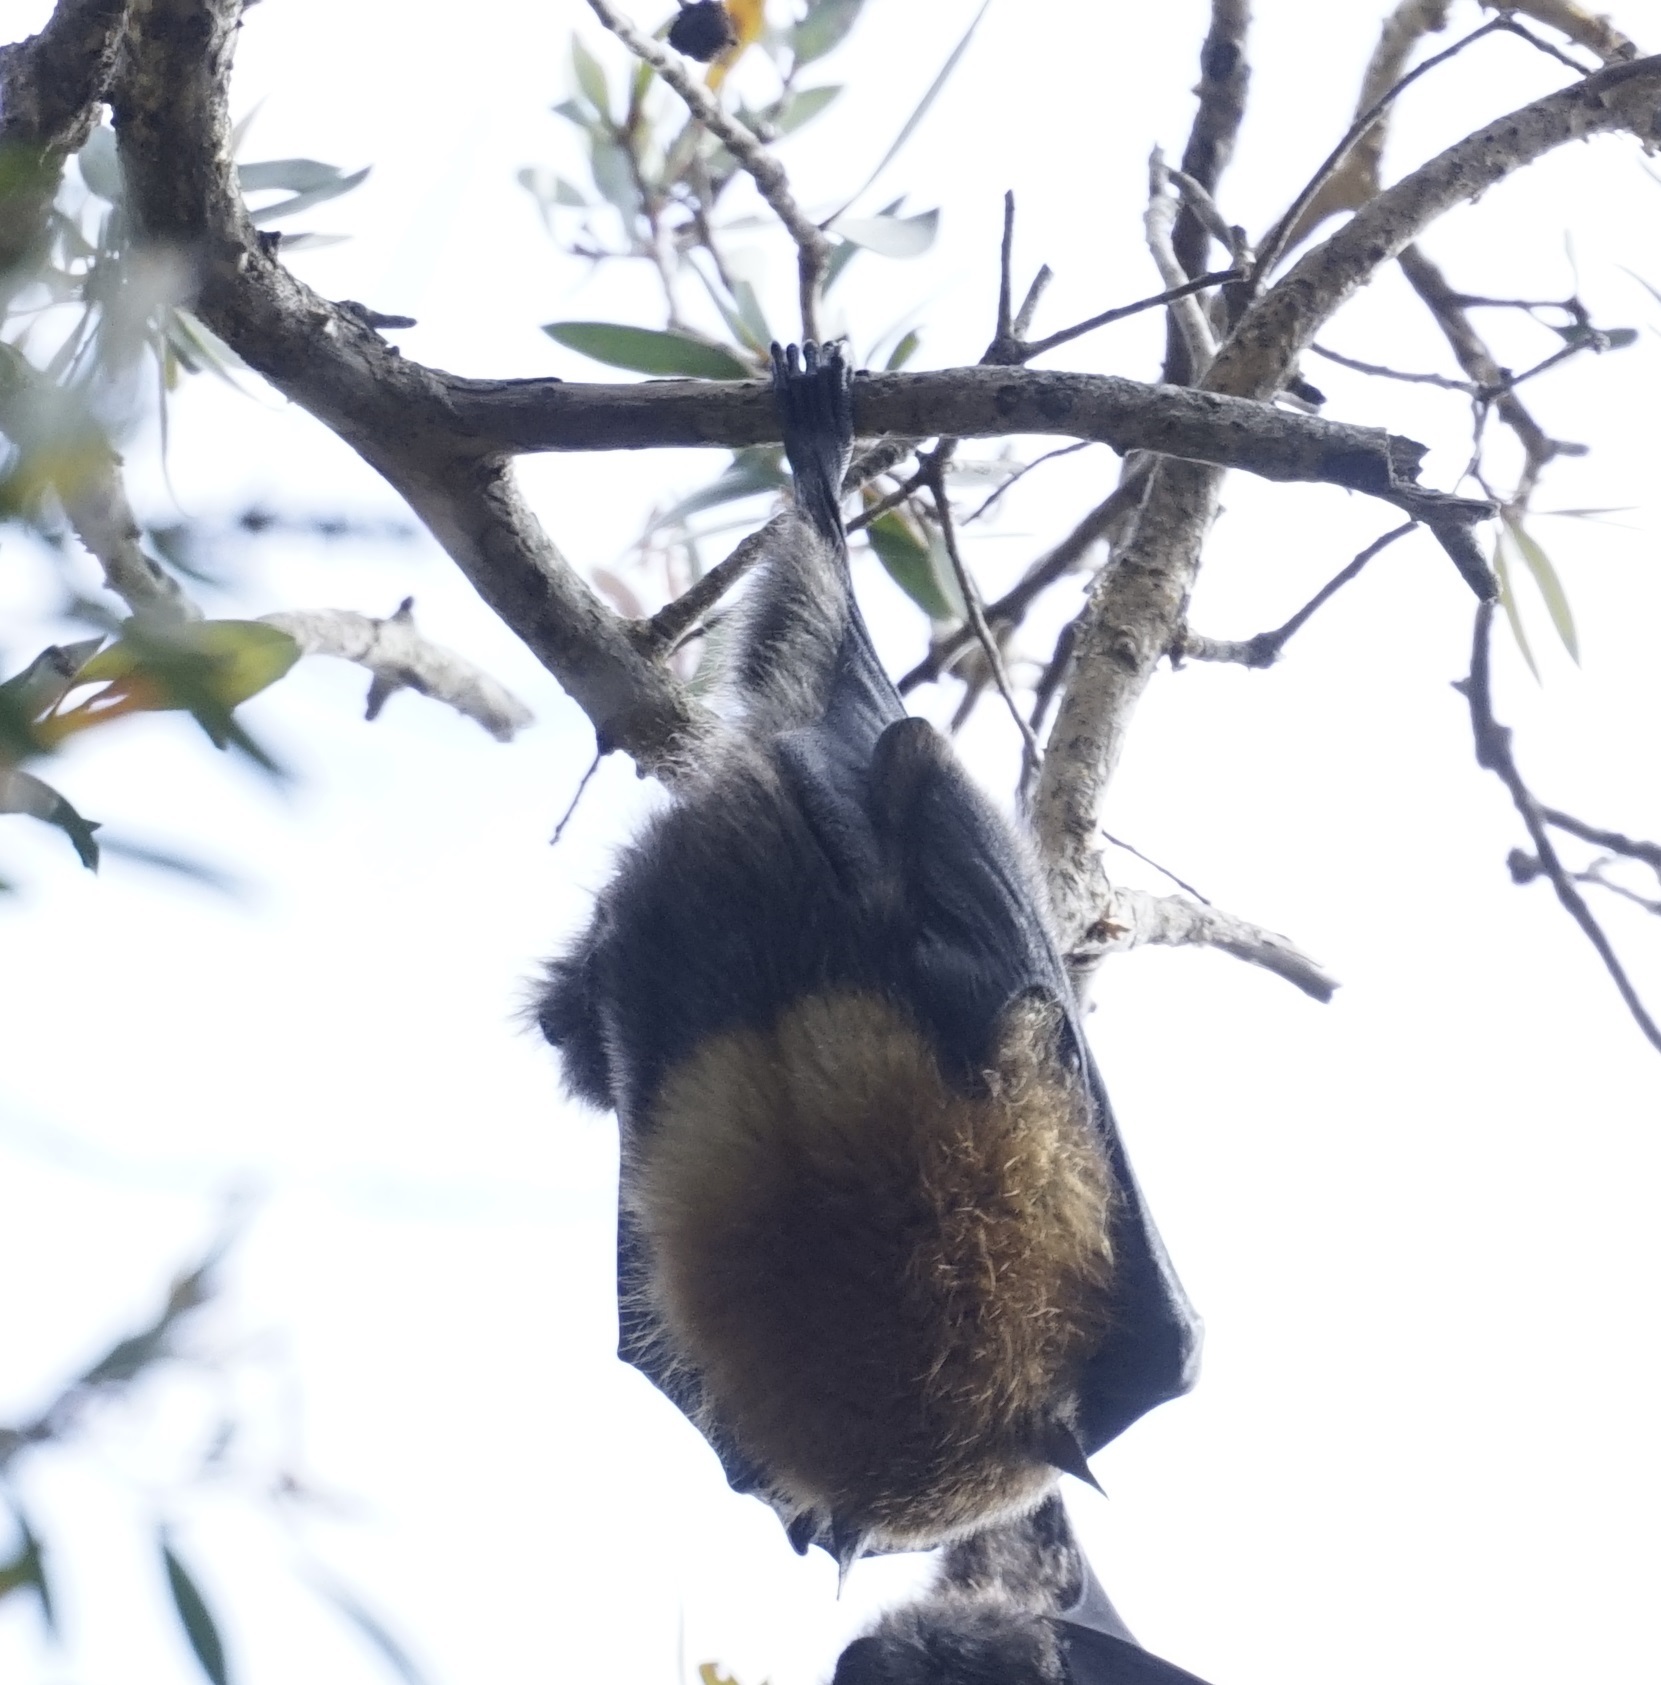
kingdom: Animalia
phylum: Chordata
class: Mammalia
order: Chiroptera
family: Pteropodidae
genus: Pteropus
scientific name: Pteropus poliocephalus
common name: Gray-headed flying fox
